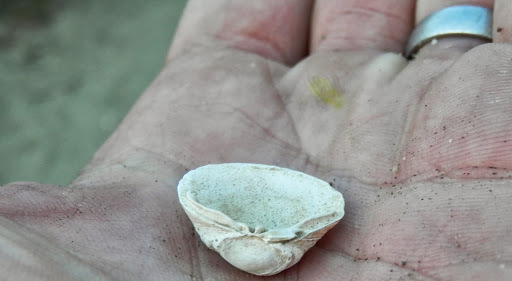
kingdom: Animalia
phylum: Mollusca
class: Bivalvia
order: Venerida
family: Cyrenidae
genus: Corbicula
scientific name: Corbicula fluminea
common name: Asian clam
